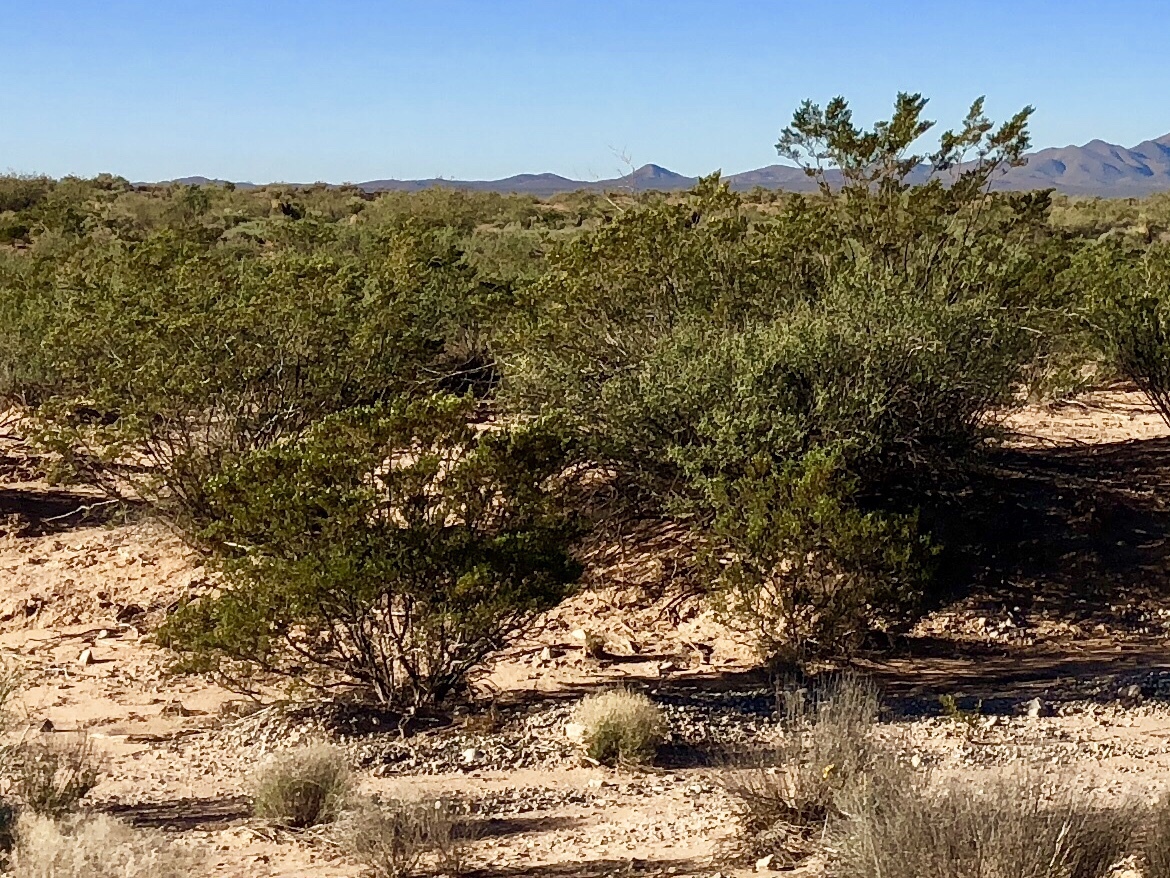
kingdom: Plantae
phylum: Tracheophyta
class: Magnoliopsida
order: Zygophyllales
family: Zygophyllaceae
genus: Larrea
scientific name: Larrea tridentata
